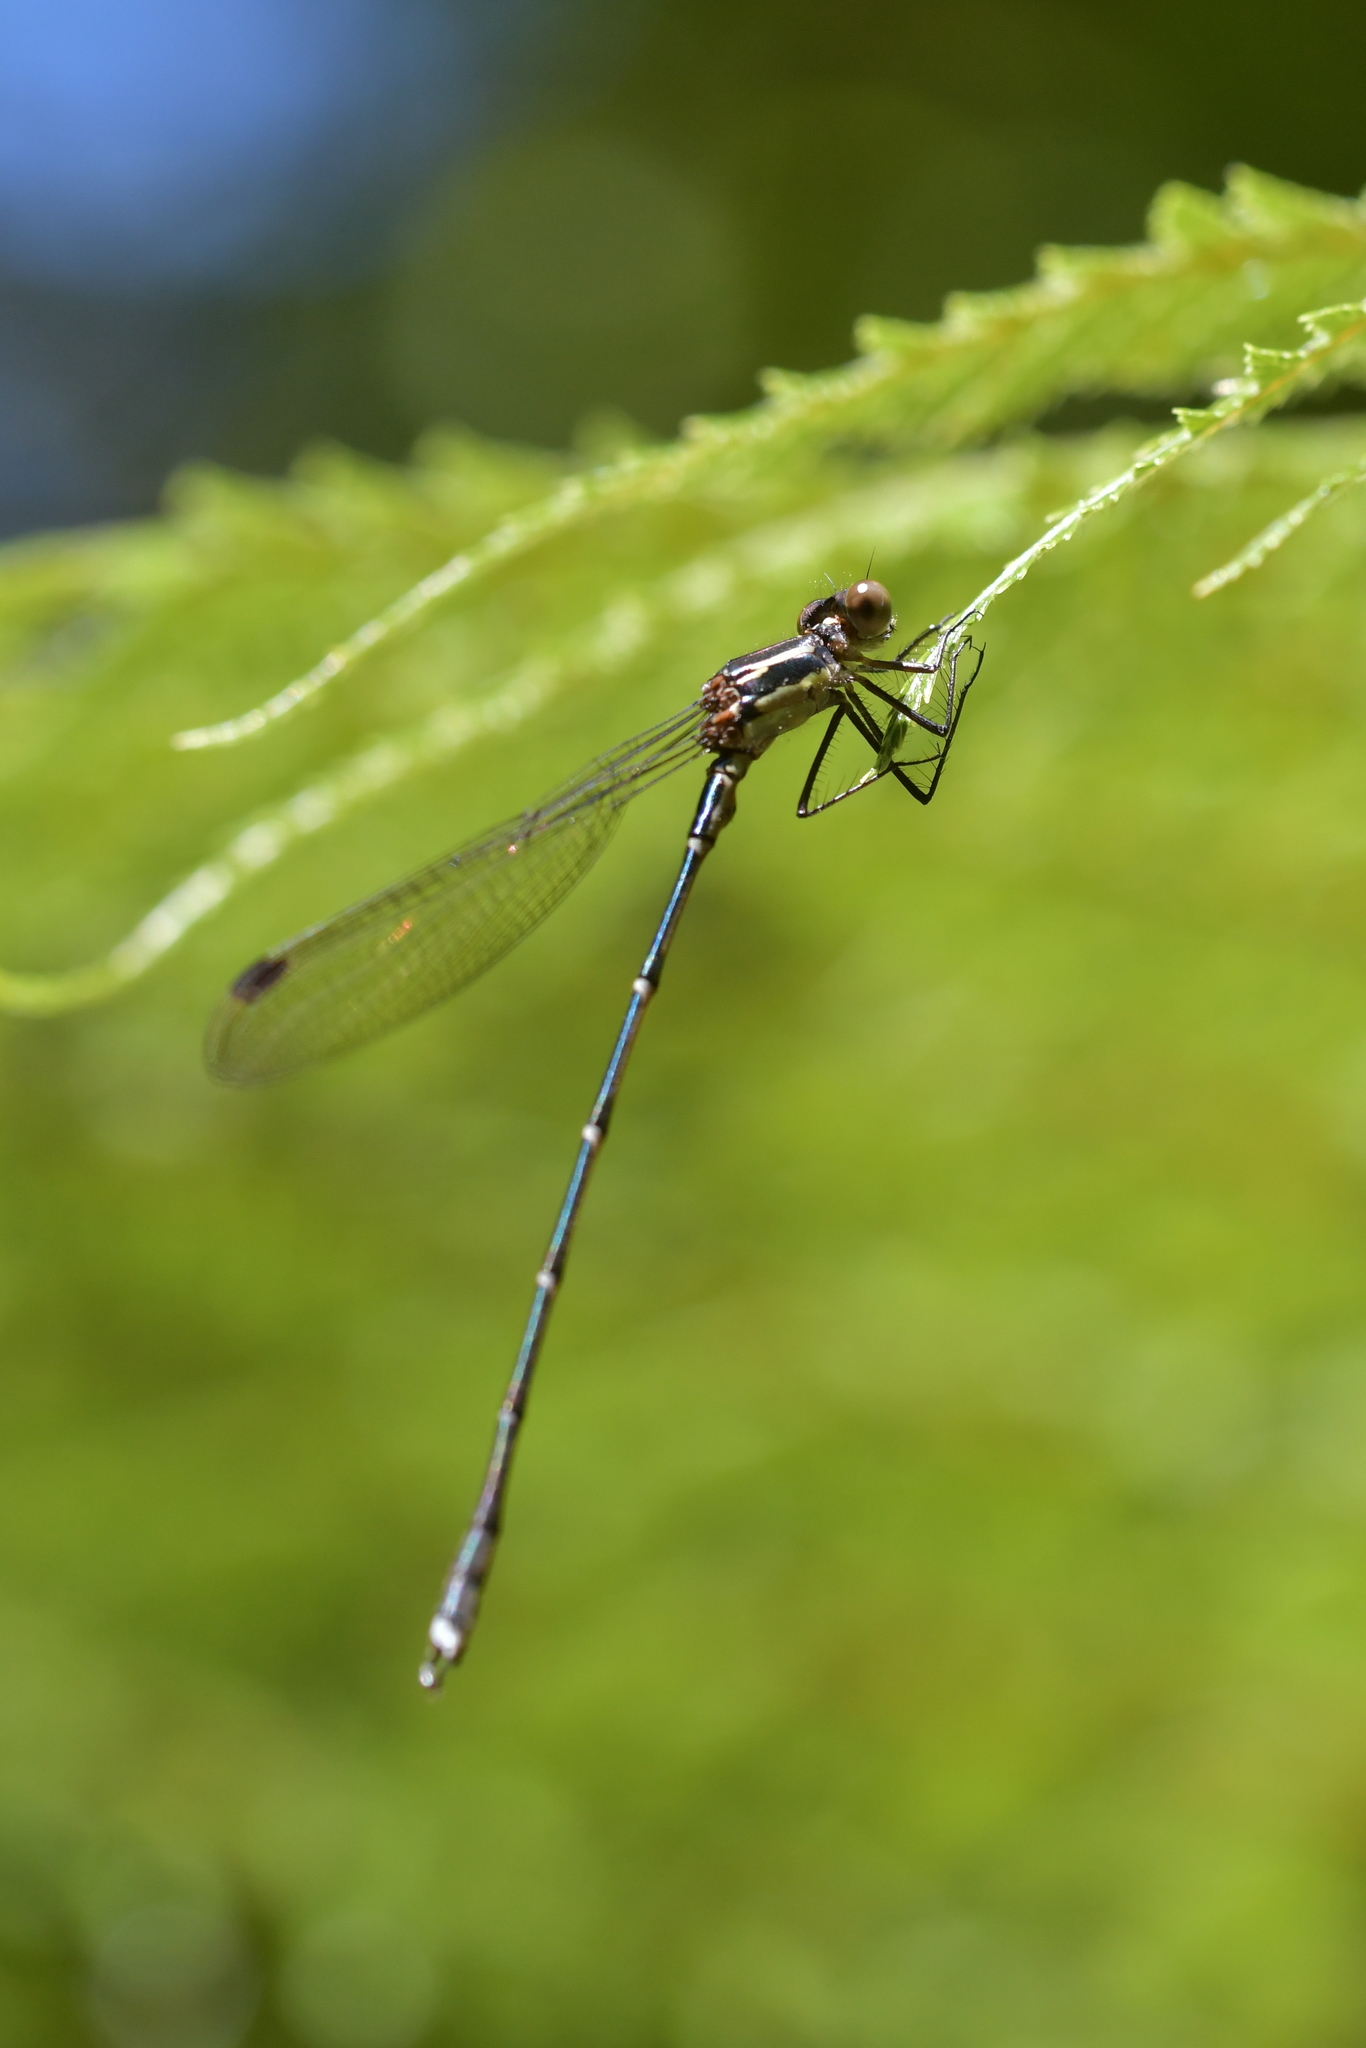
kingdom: Animalia
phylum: Arthropoda
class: Insecta
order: Odonata
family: Lestidae
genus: Austrolestes
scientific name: Austrolestes colensonis
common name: Blue damselfly
